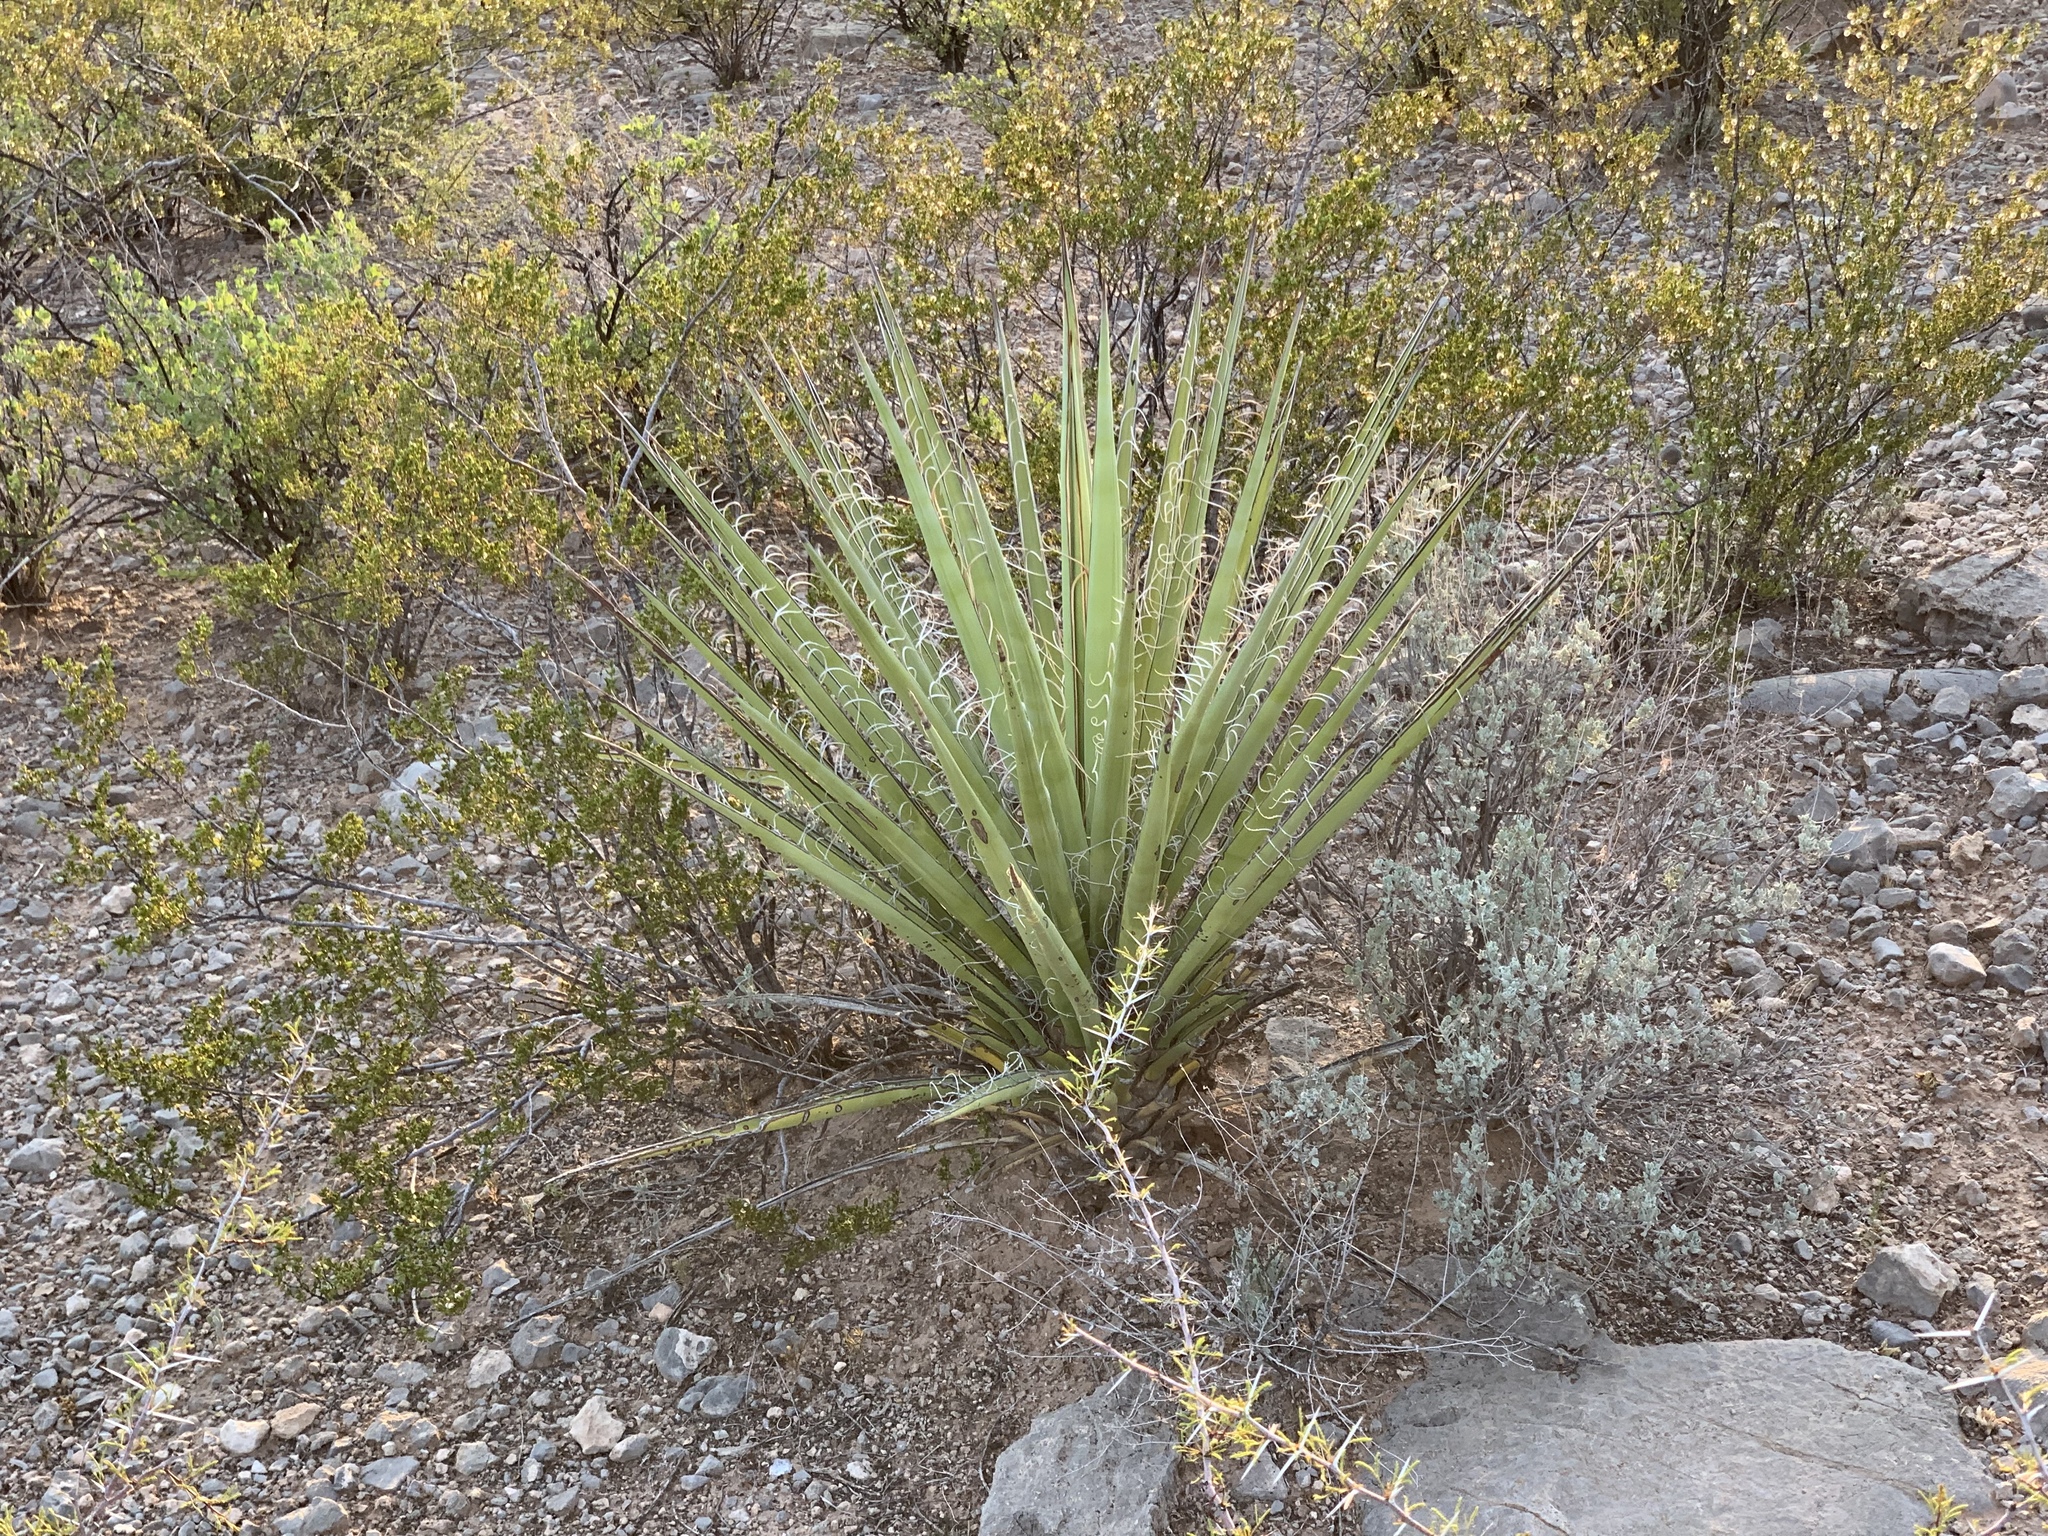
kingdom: Plantae
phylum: Tracheophyta
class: Liliopsida
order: Asparagales
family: Asparagaceae
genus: Yucca
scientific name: Yucca baccata
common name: Banana yucca
